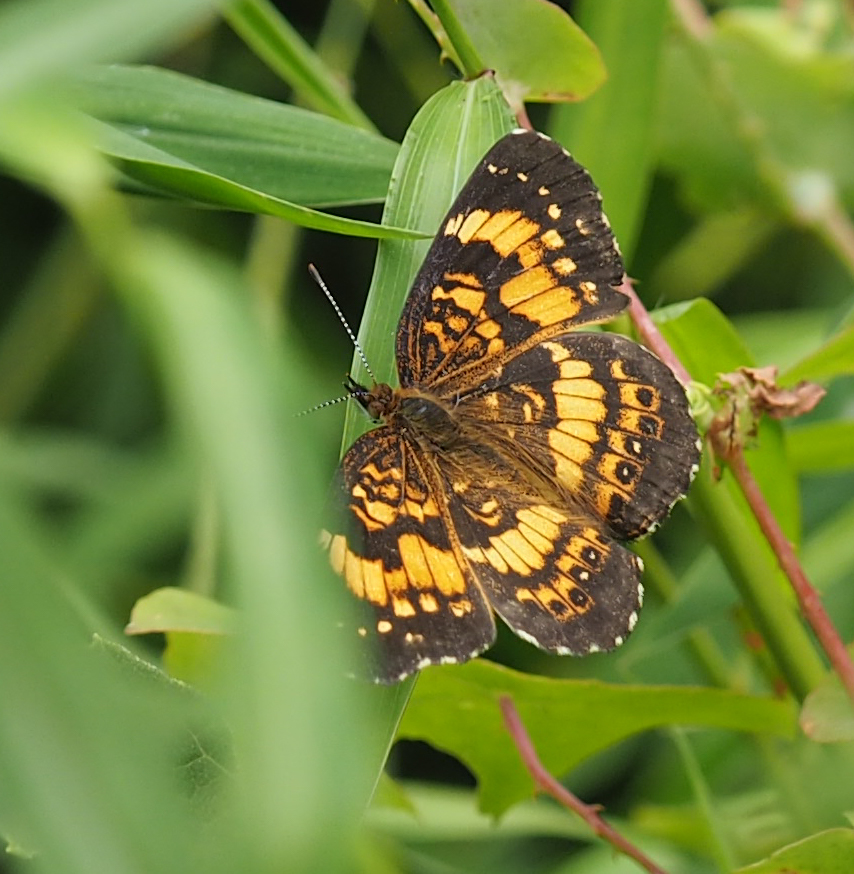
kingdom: Animalia
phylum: Arthropoda
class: Insecta
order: Lepidoptera
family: Nymphalidae
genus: Chlosyne
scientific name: Chlosyne nycteis
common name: Silvery checkerspot
